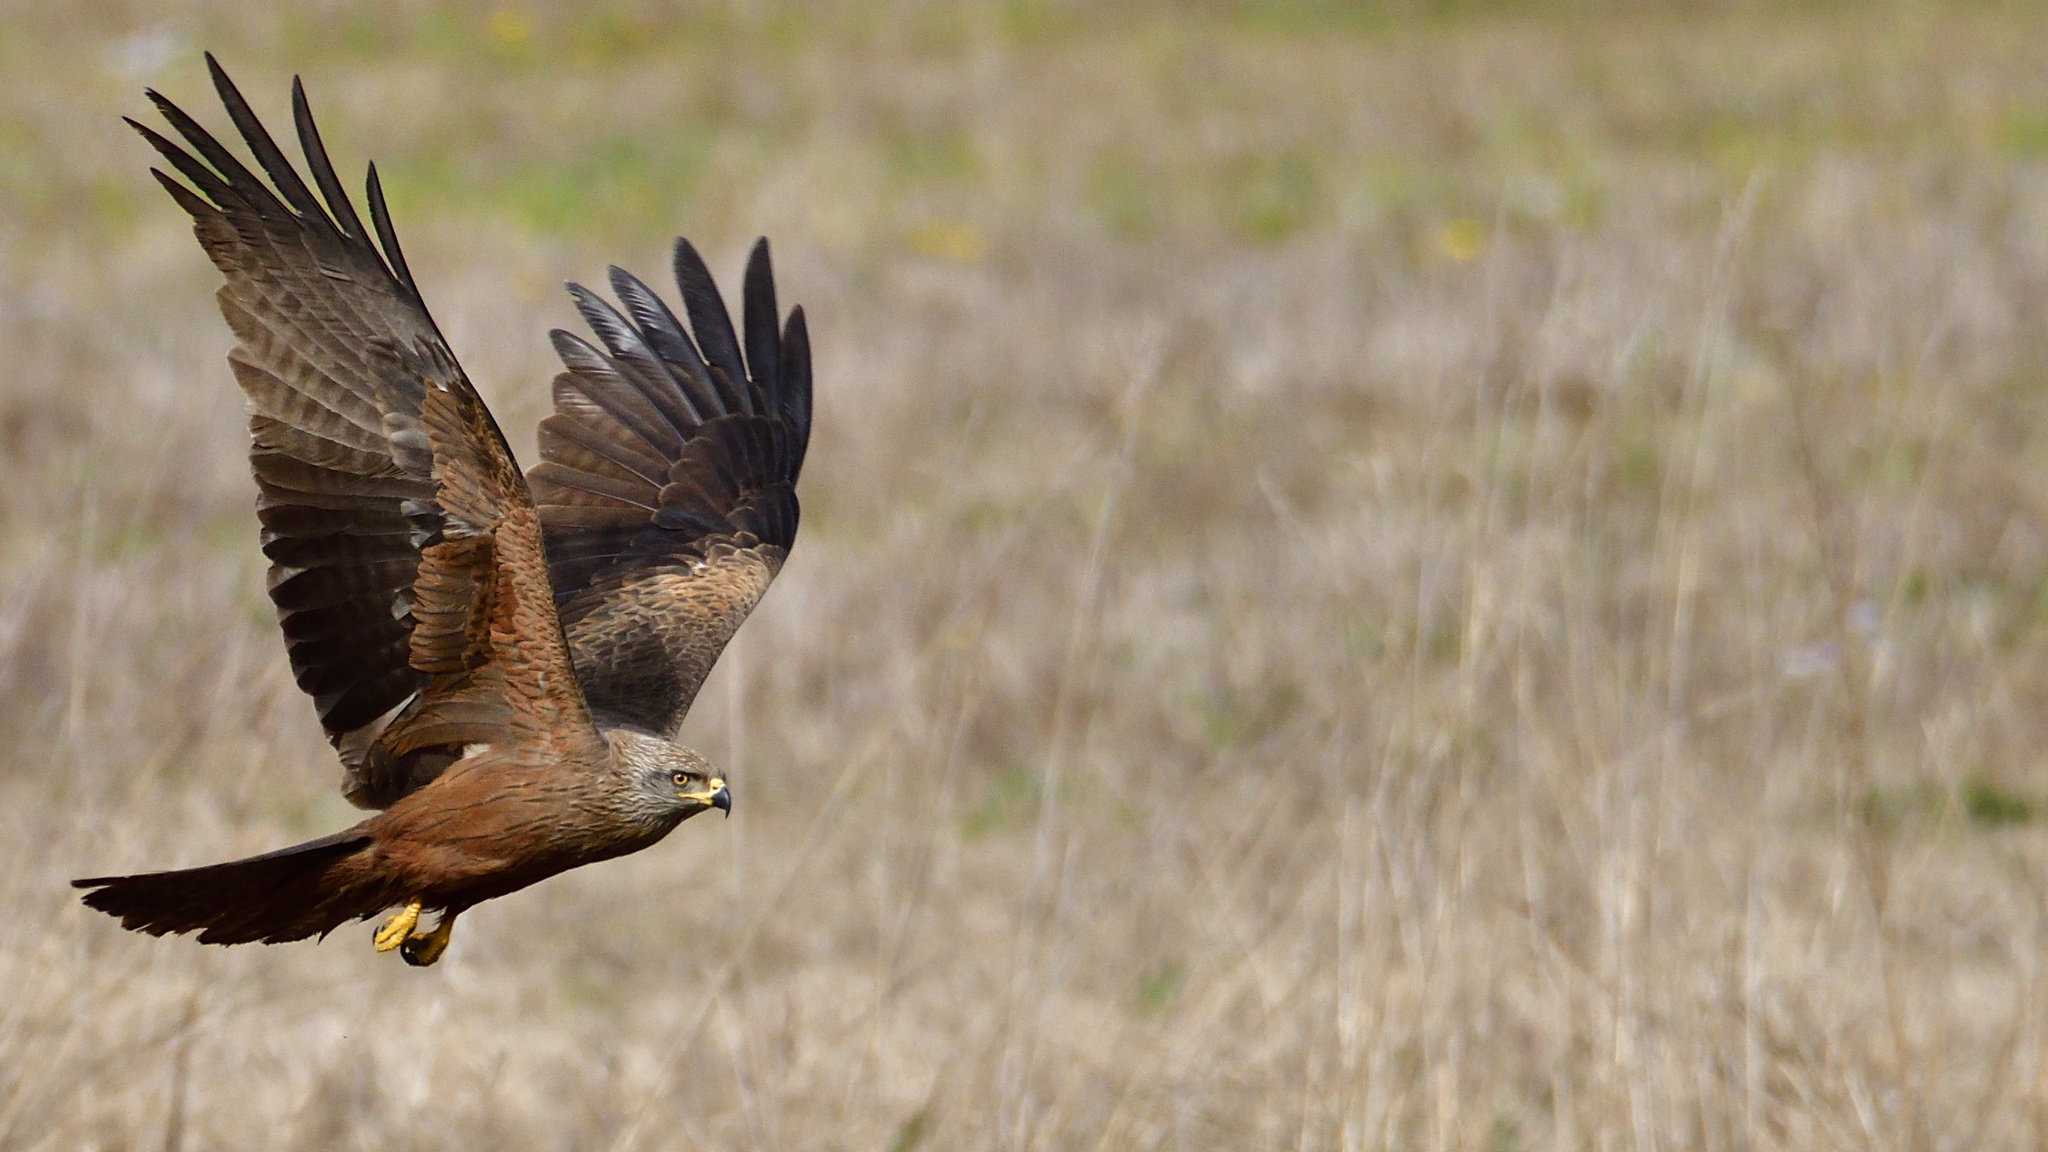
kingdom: Animalia
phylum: Chordata
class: Aves
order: Accipitriformes
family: Accipitridae
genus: Milvus
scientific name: Milvus migrans
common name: Black kite
